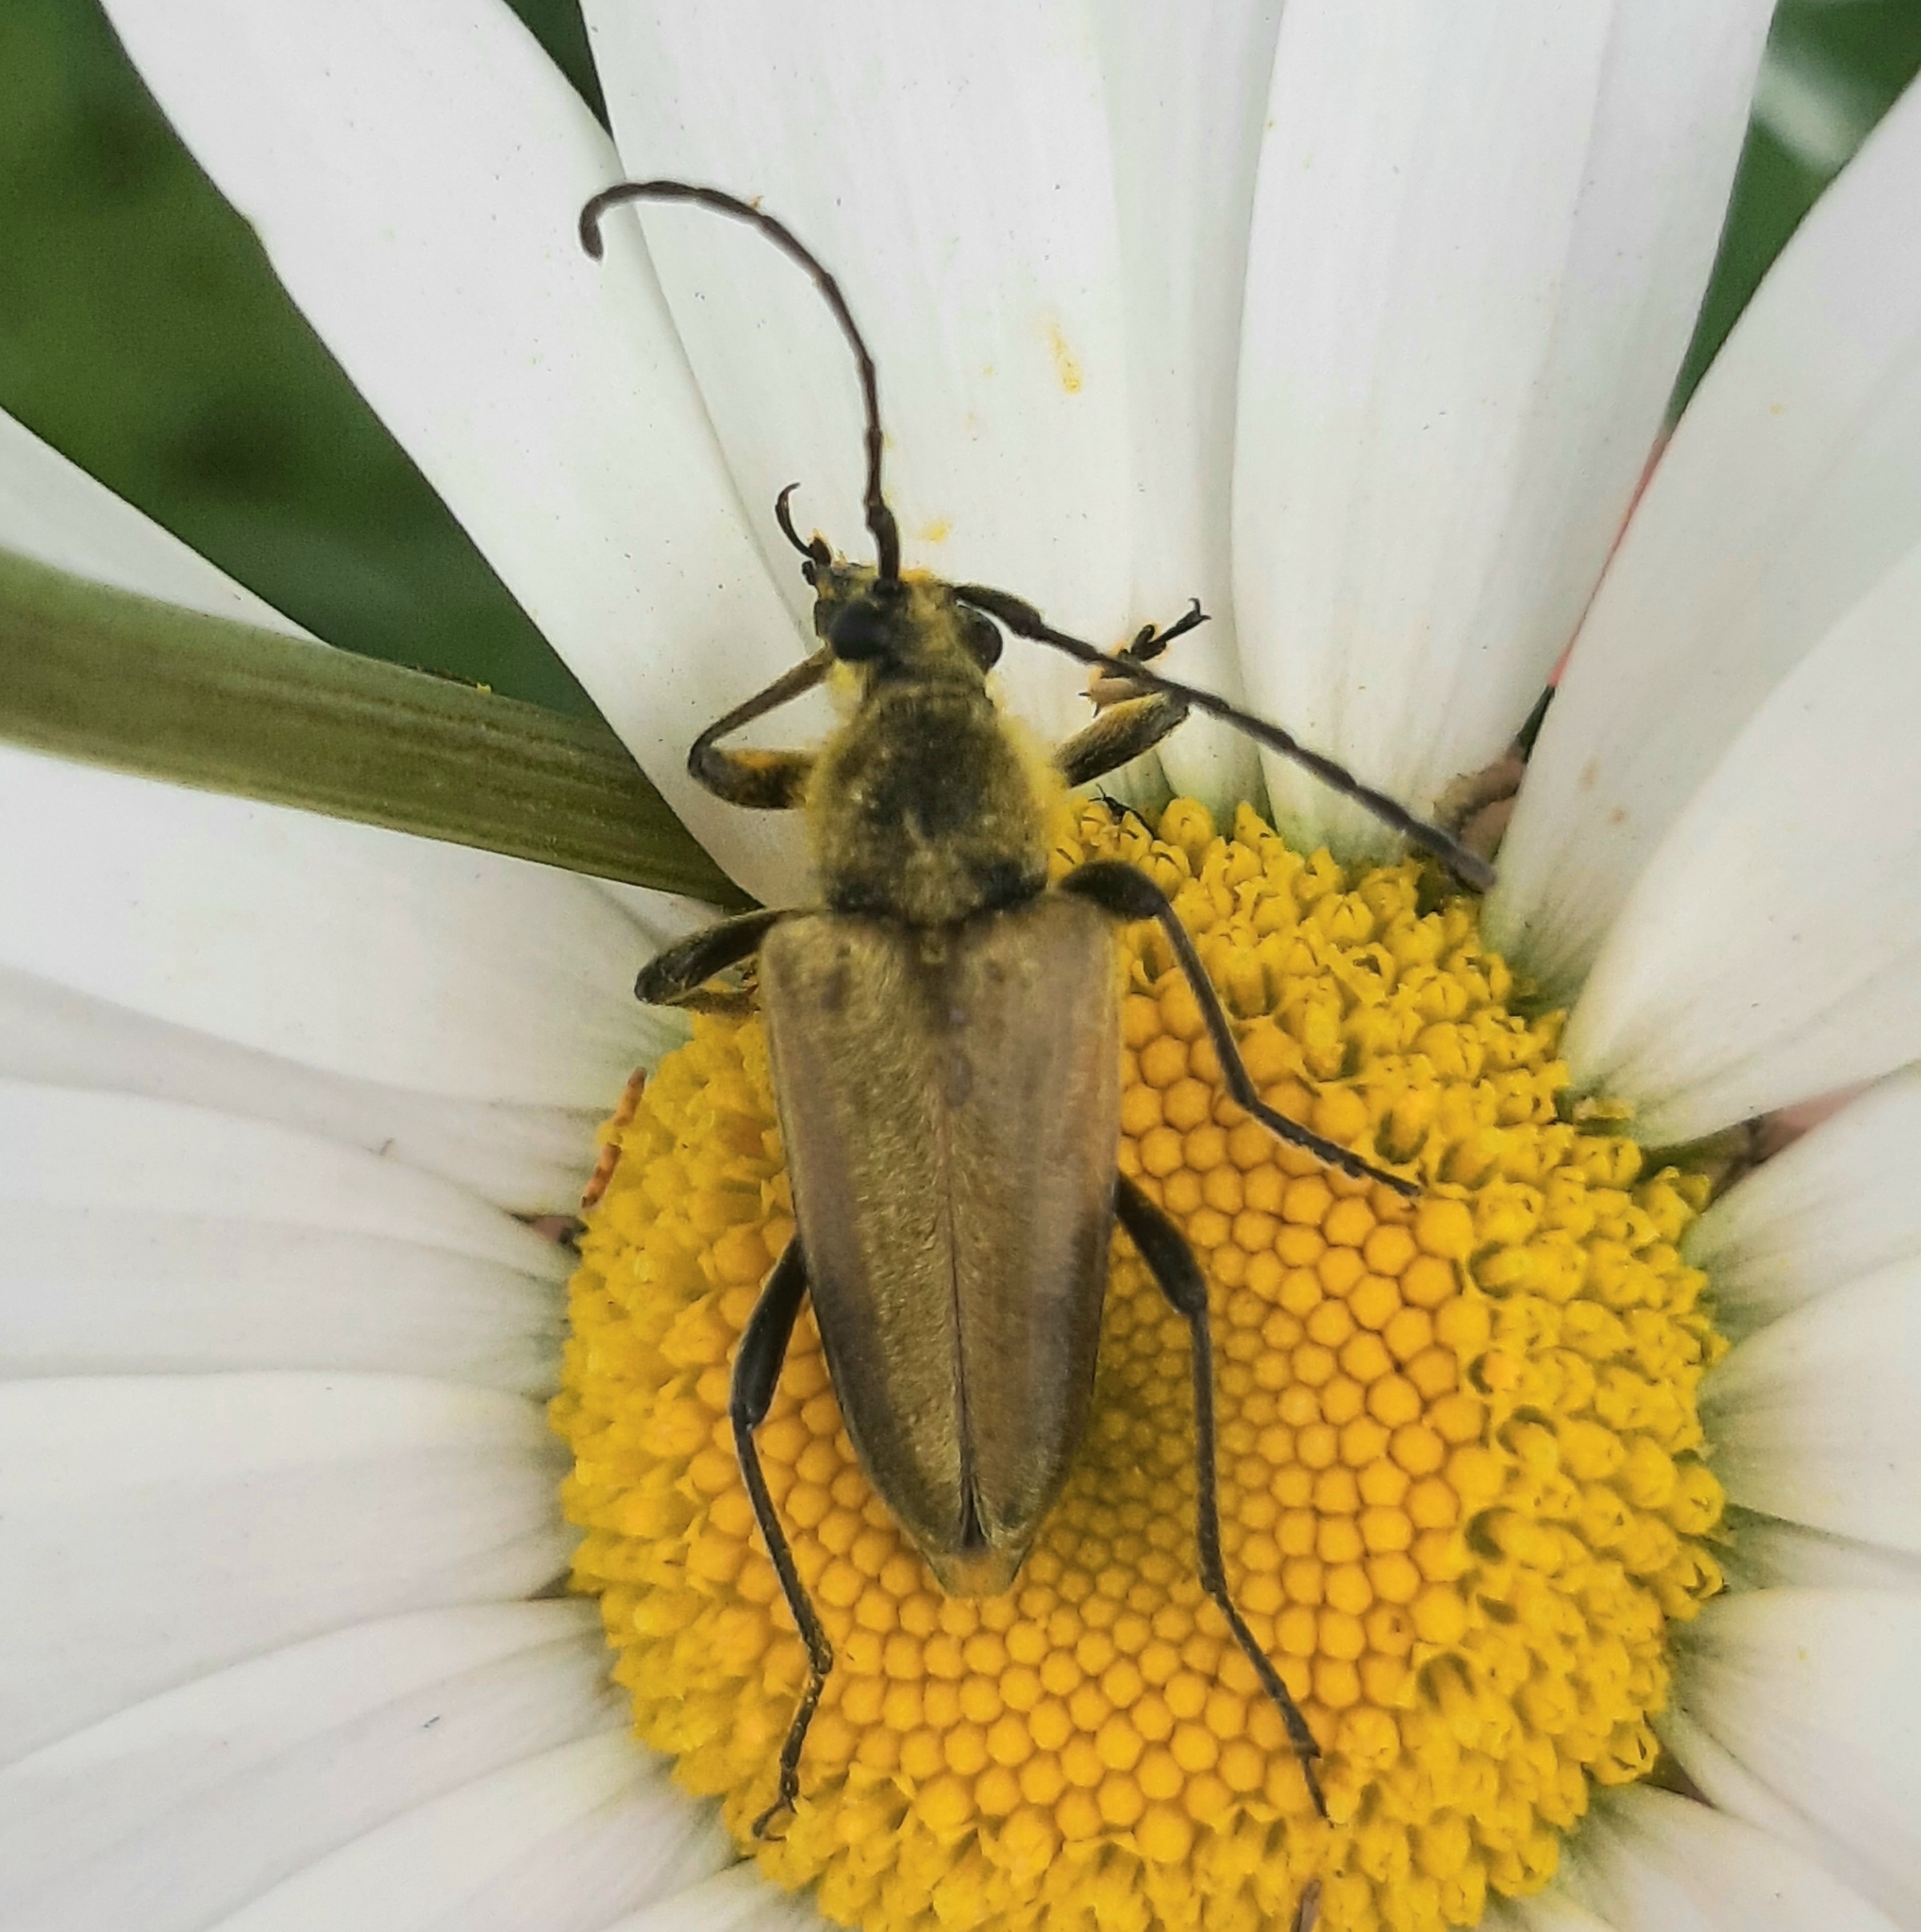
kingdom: Animalia
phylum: Arthropoda
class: Insecta
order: Coleoptera
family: Cerambycidae
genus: Cosmosalia
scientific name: Cosmosalia chrysocoma
